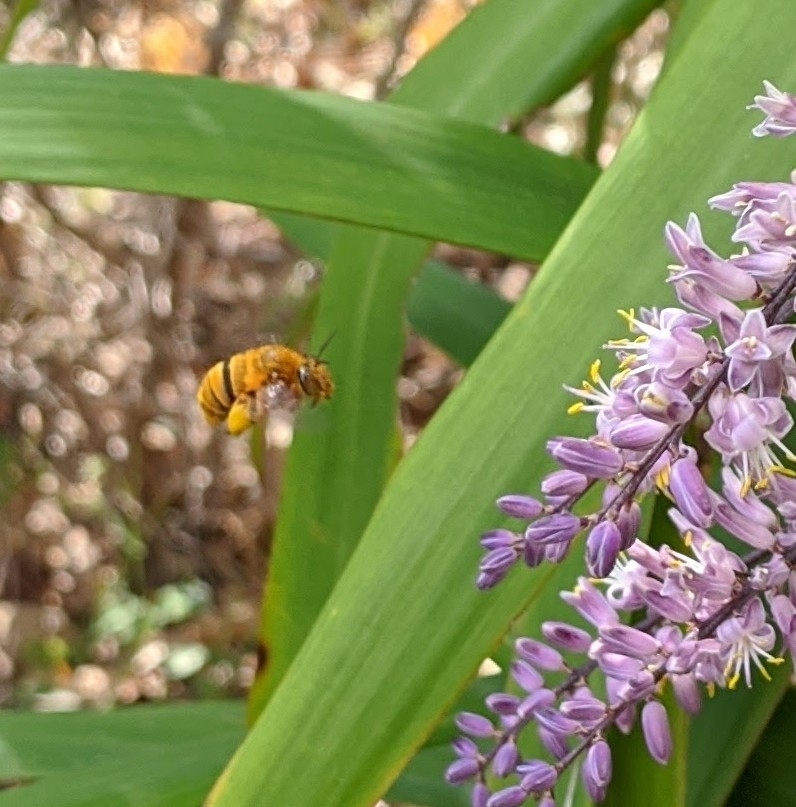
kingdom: Animalia
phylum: Arthropoda
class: Insecta
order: Hymenoptera
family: Apidae
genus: Amegilla
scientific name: Amegilla bombiformis
